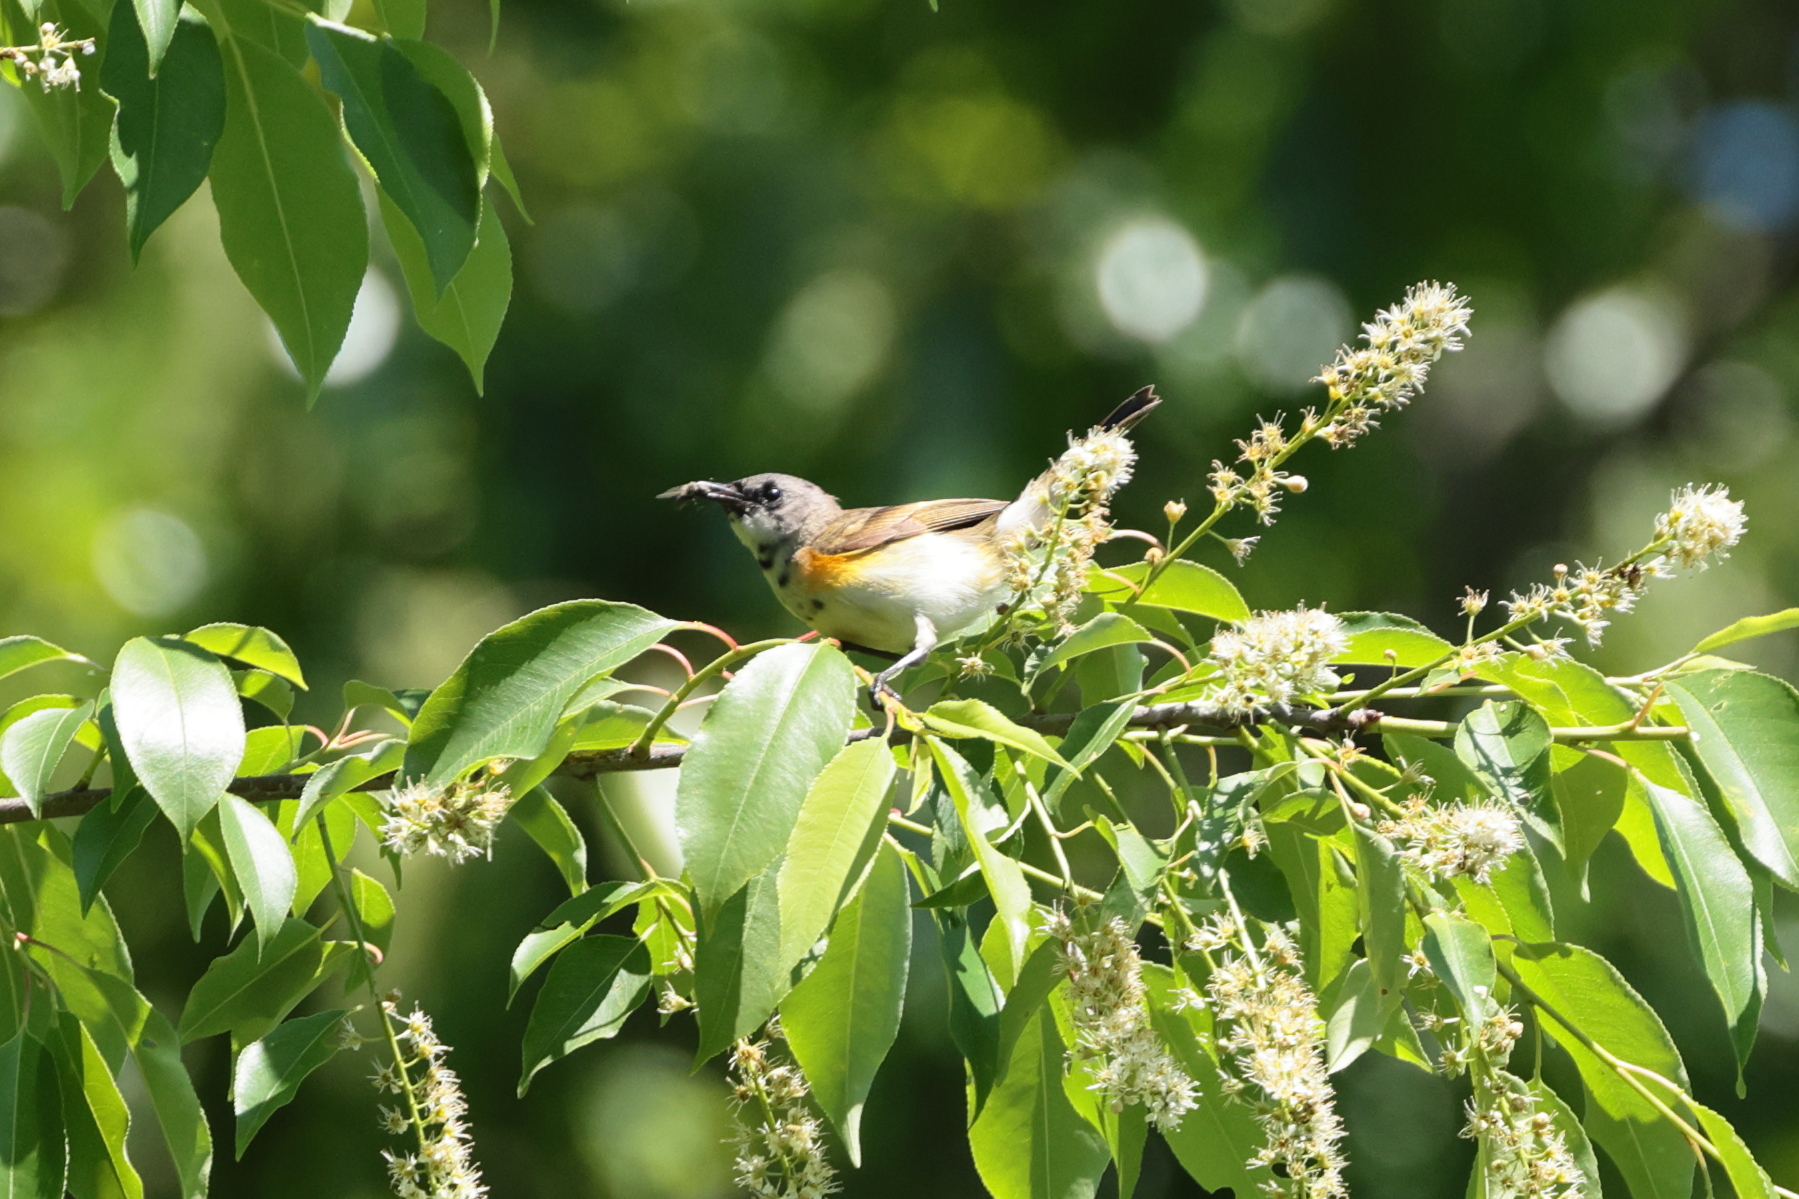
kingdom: Animalia
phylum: Chordata
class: Aves
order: Passeriformes
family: Parulidae
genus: Setophaga
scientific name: Setophaga ruticilla
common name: American redstart
